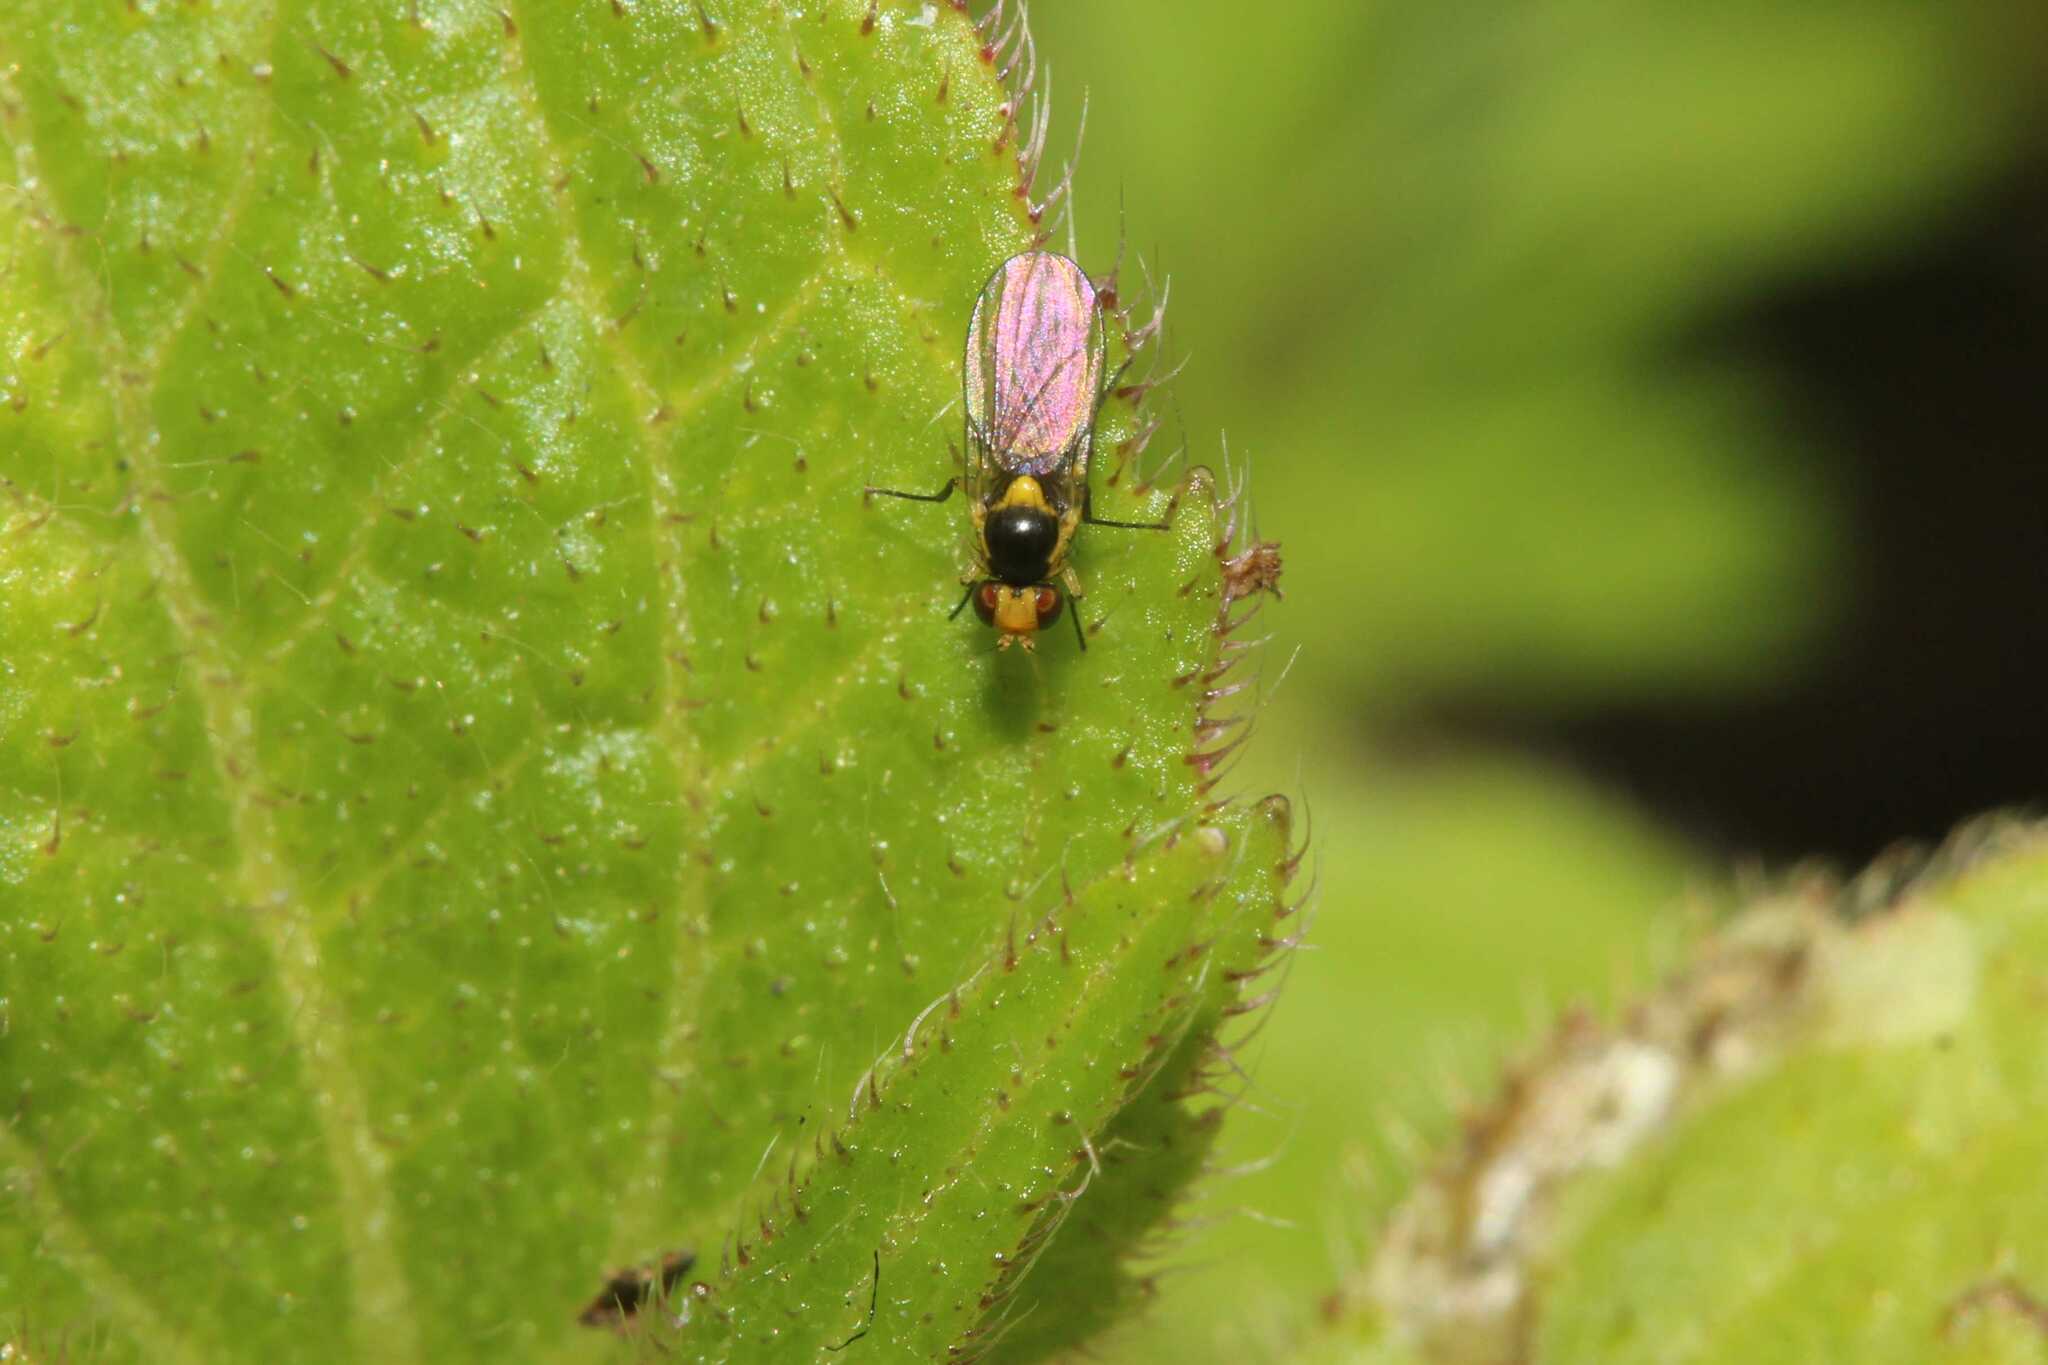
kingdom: Animalia
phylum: Arthropoda
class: Insecta
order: Diptera
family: Agromyzidae
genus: Liriomyza
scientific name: Liriomyza
